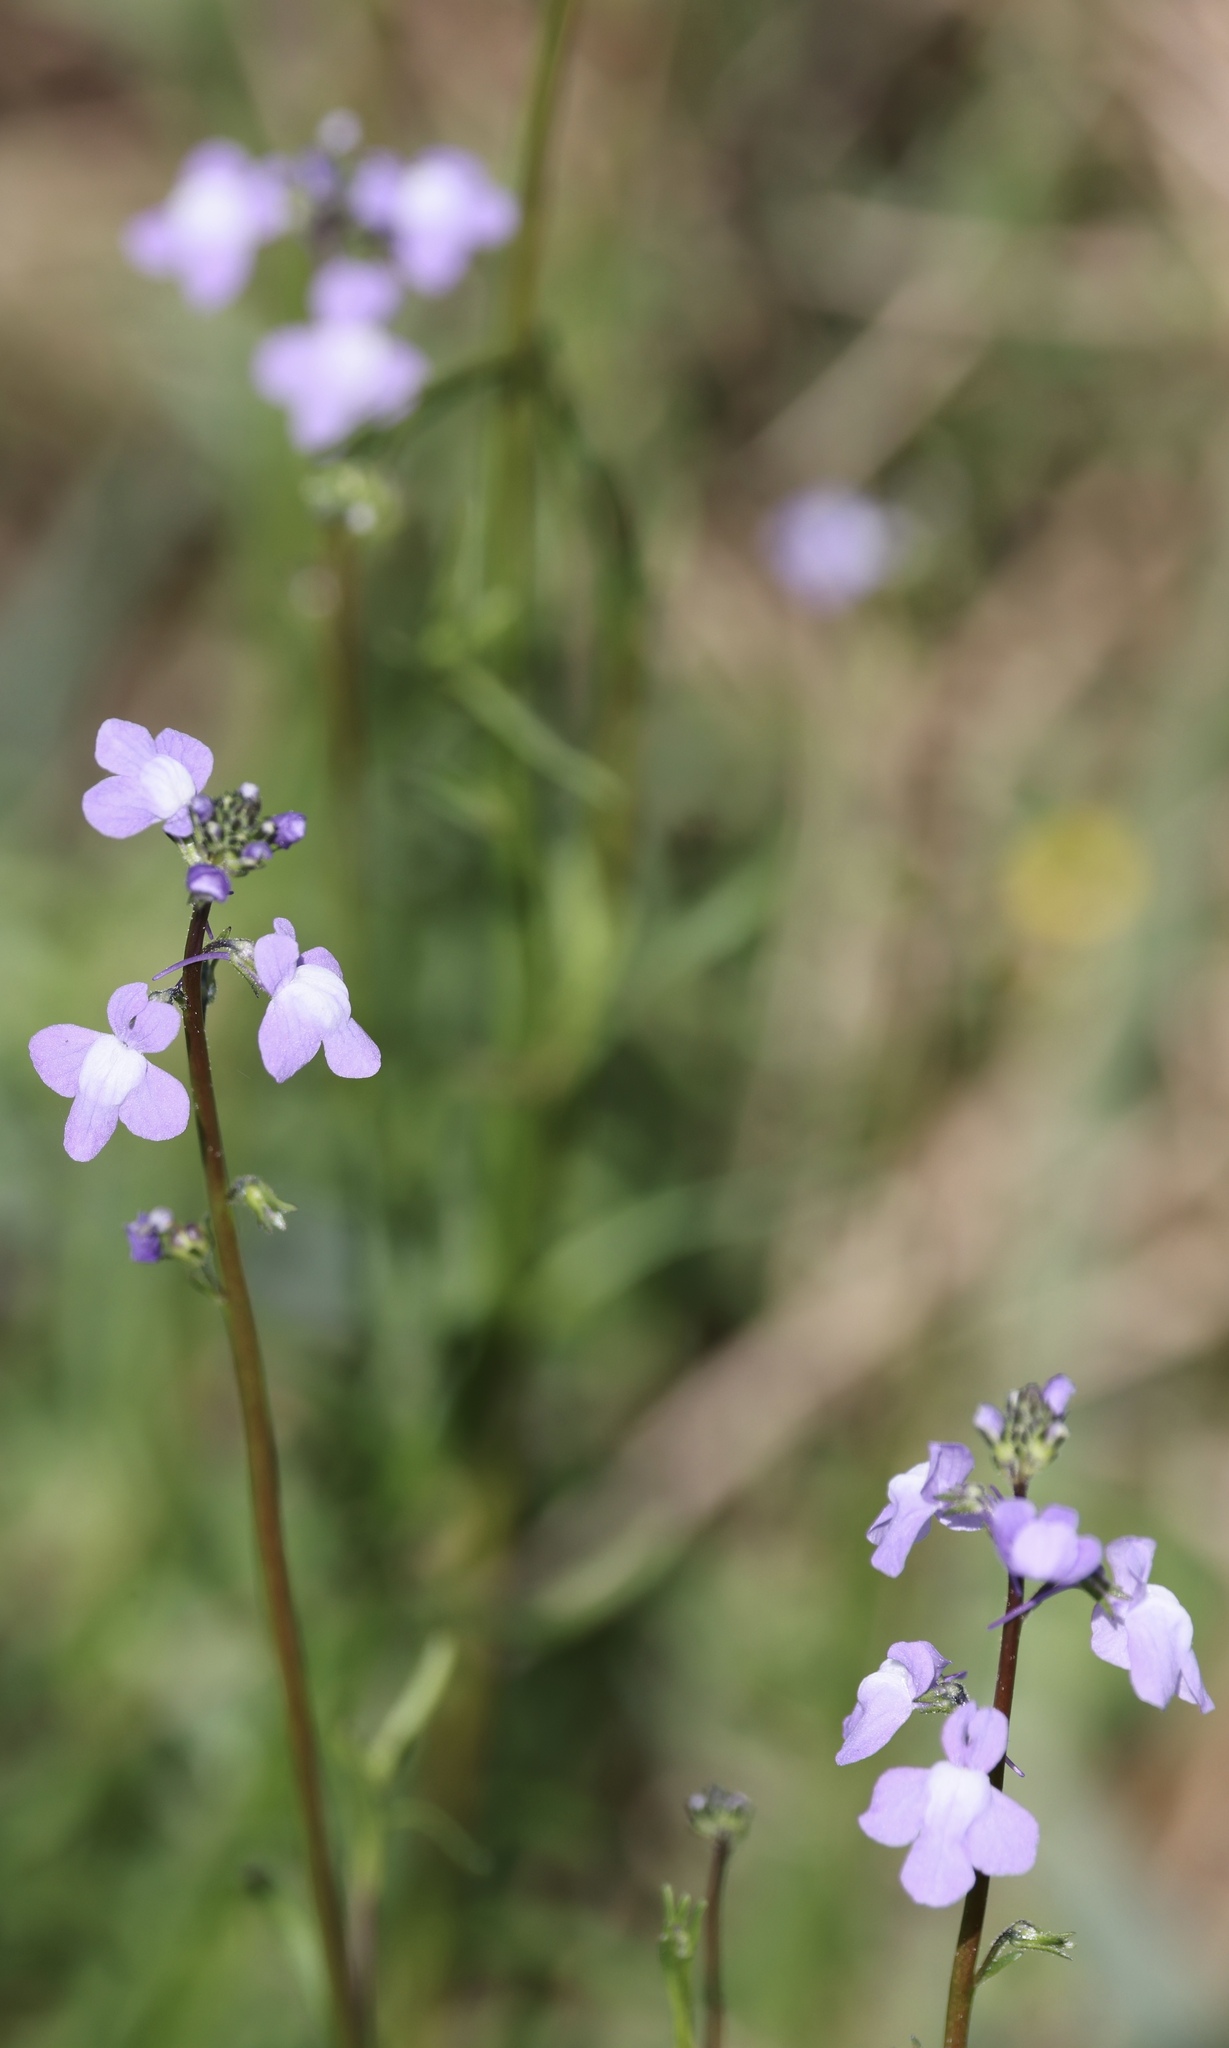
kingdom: Plantae
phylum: Tracheophyta
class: Magnoliopsida
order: Lamiales
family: Plantaginaceae
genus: Nuttallanthus
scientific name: Nuttallanthus canadensis
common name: Blue toadflax
